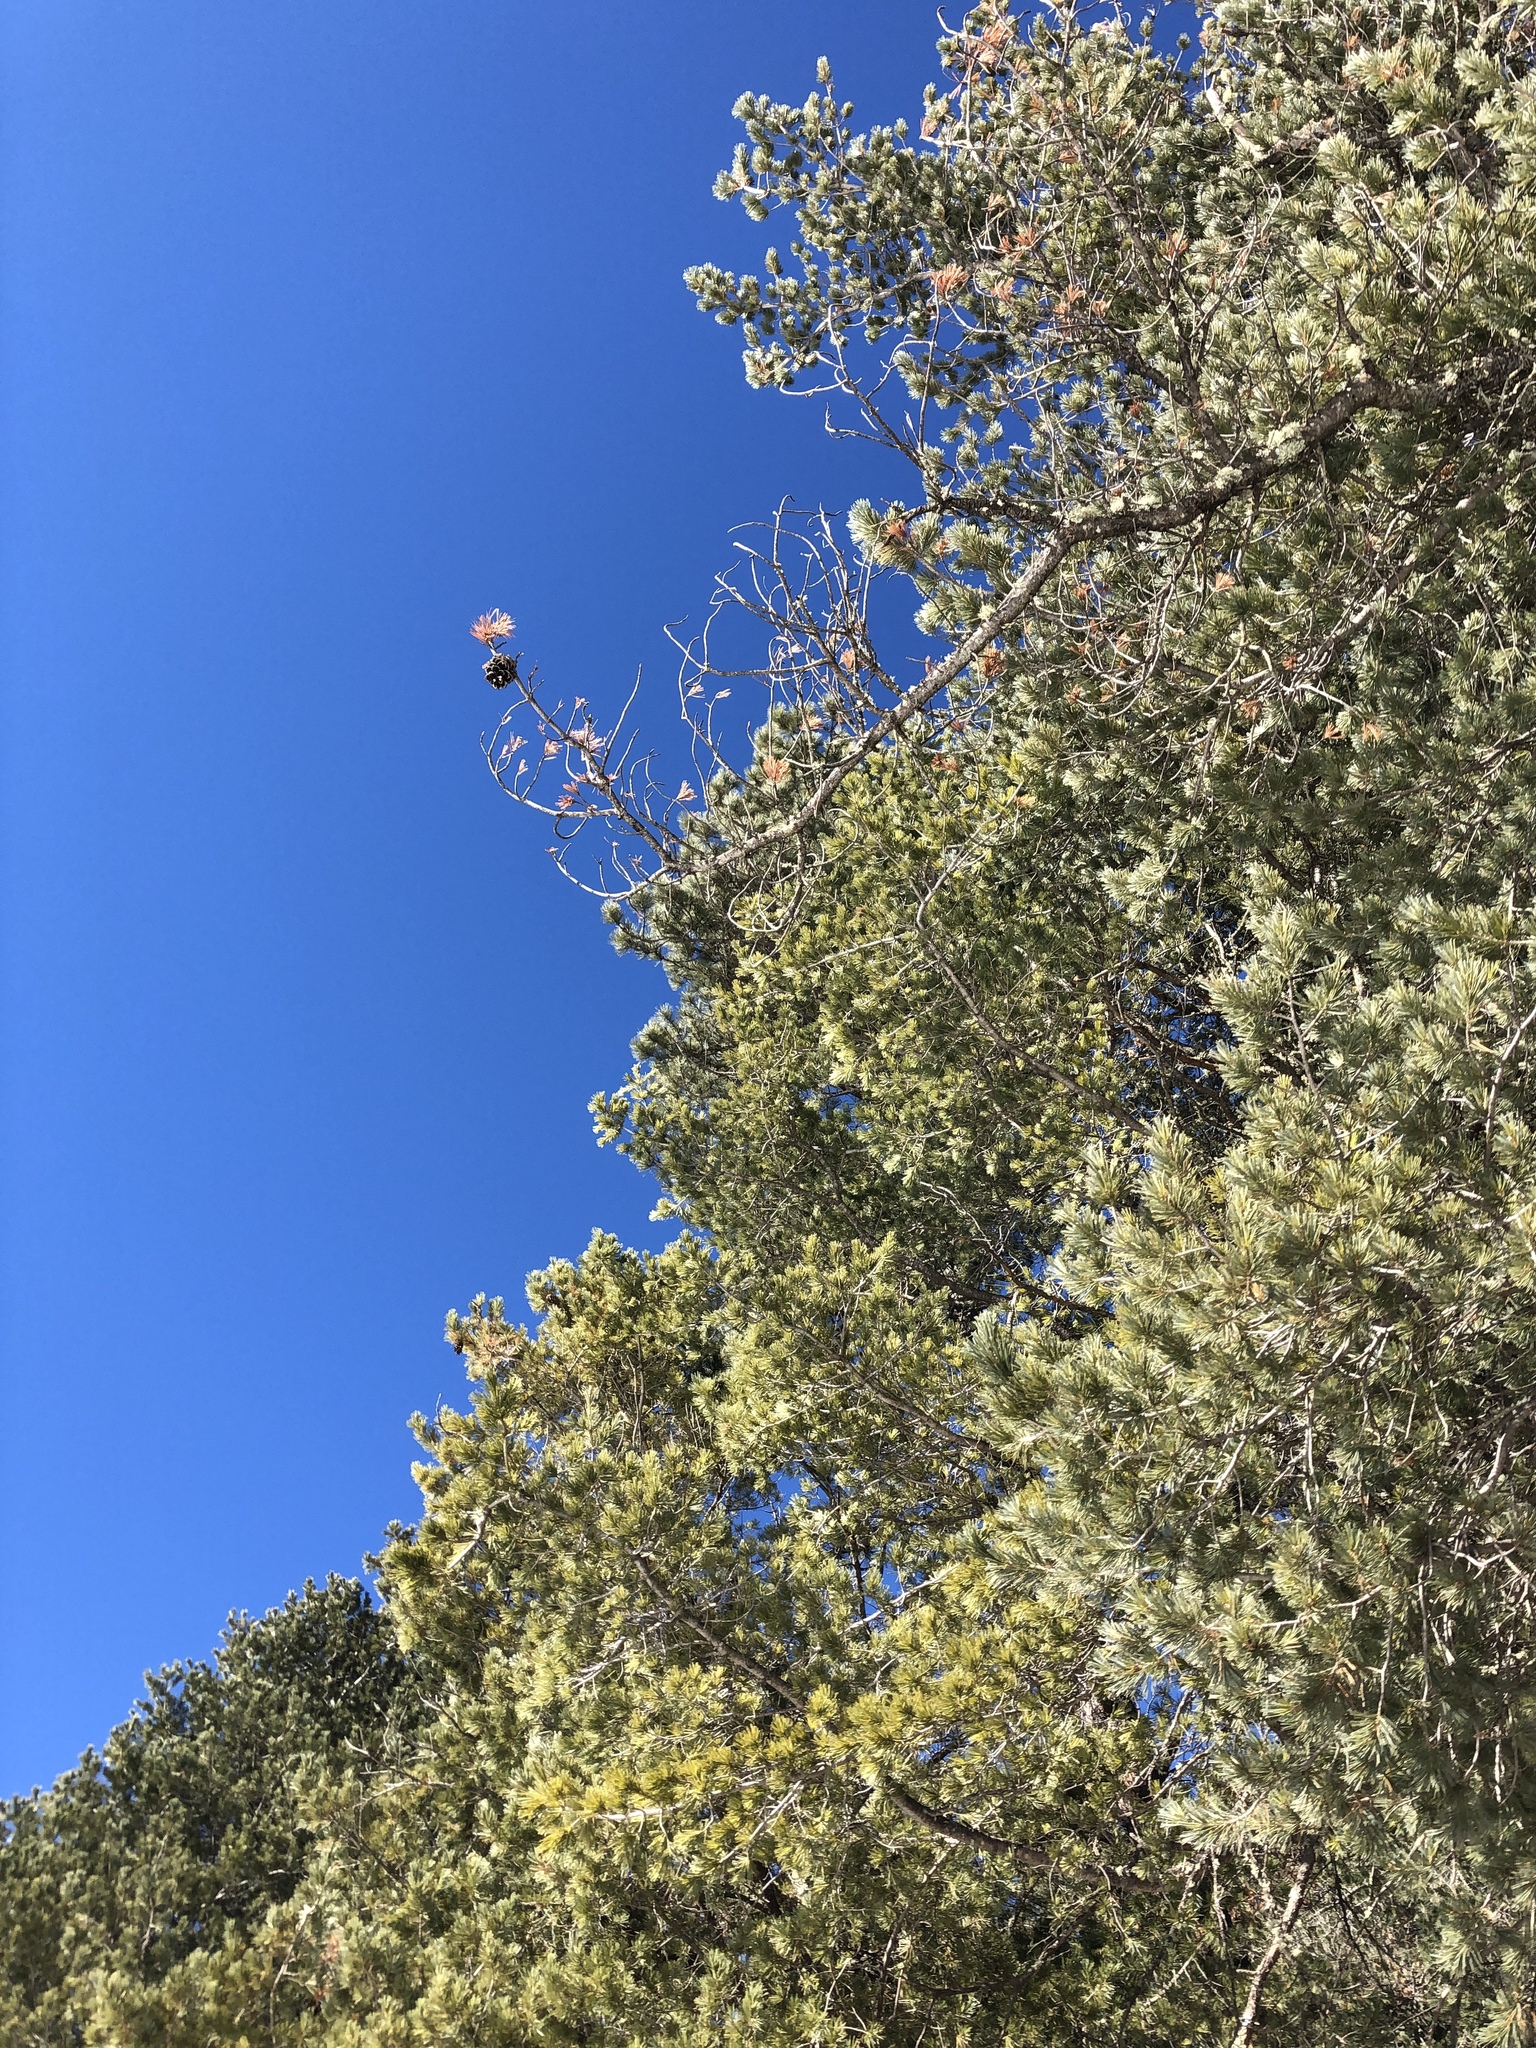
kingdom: Plantae
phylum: Tracheophyta
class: Pinopsida
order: Pinales
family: Pinaceae
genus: Pinus
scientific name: Pinus strobiformis
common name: Southwestern white pine
